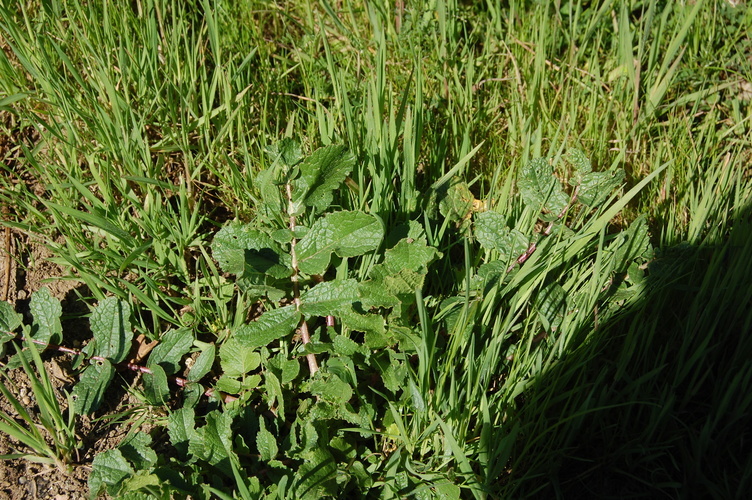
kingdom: Plantae
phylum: Tracheophyta
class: Magnoliopsida
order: Brassicales
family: Brassicaceae
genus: Raphanus
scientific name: Raphanus raphanistrum
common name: Wild radish
